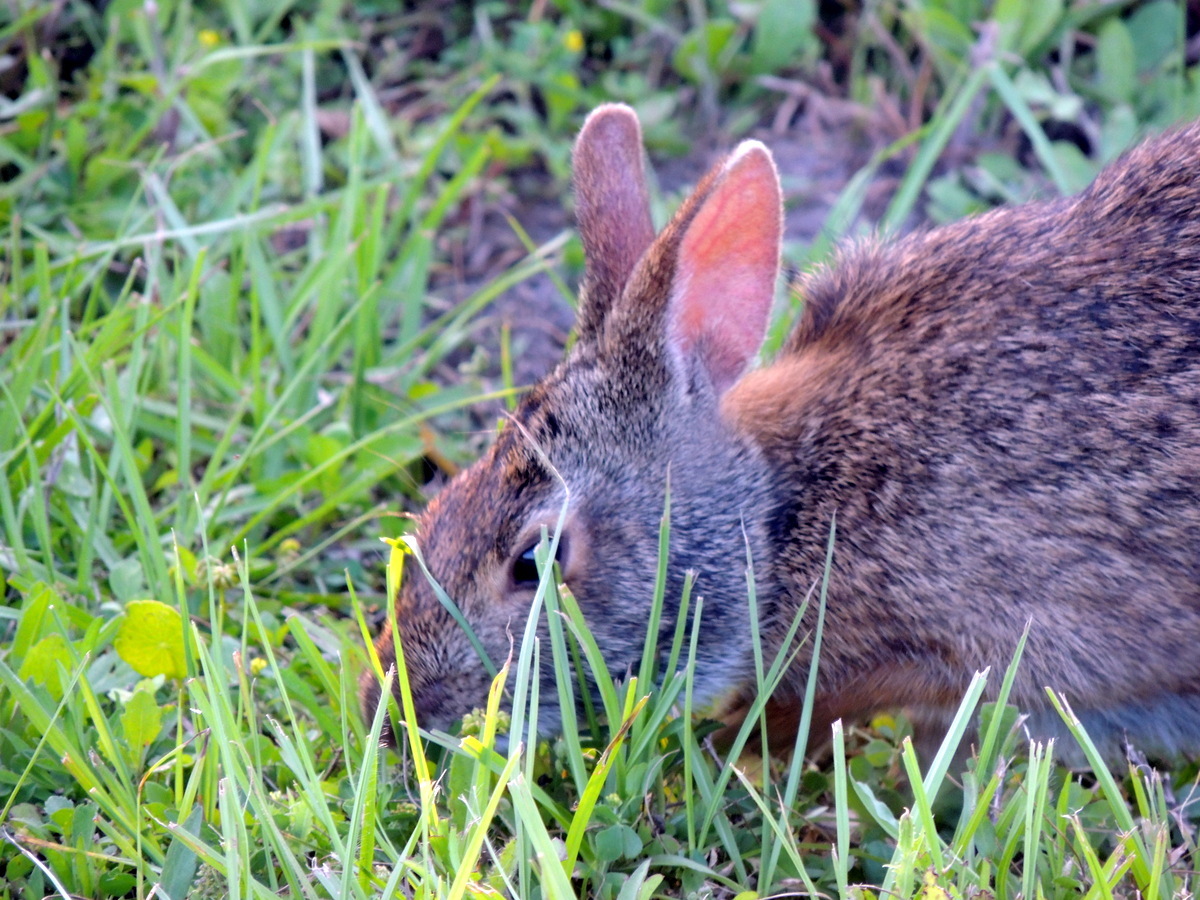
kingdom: Animalia
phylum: Chordata
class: Mammalia
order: Lagomorpha
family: Leporidae
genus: Sylvilagus
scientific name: Sylvilagus palustris
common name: Marsh rabbit
